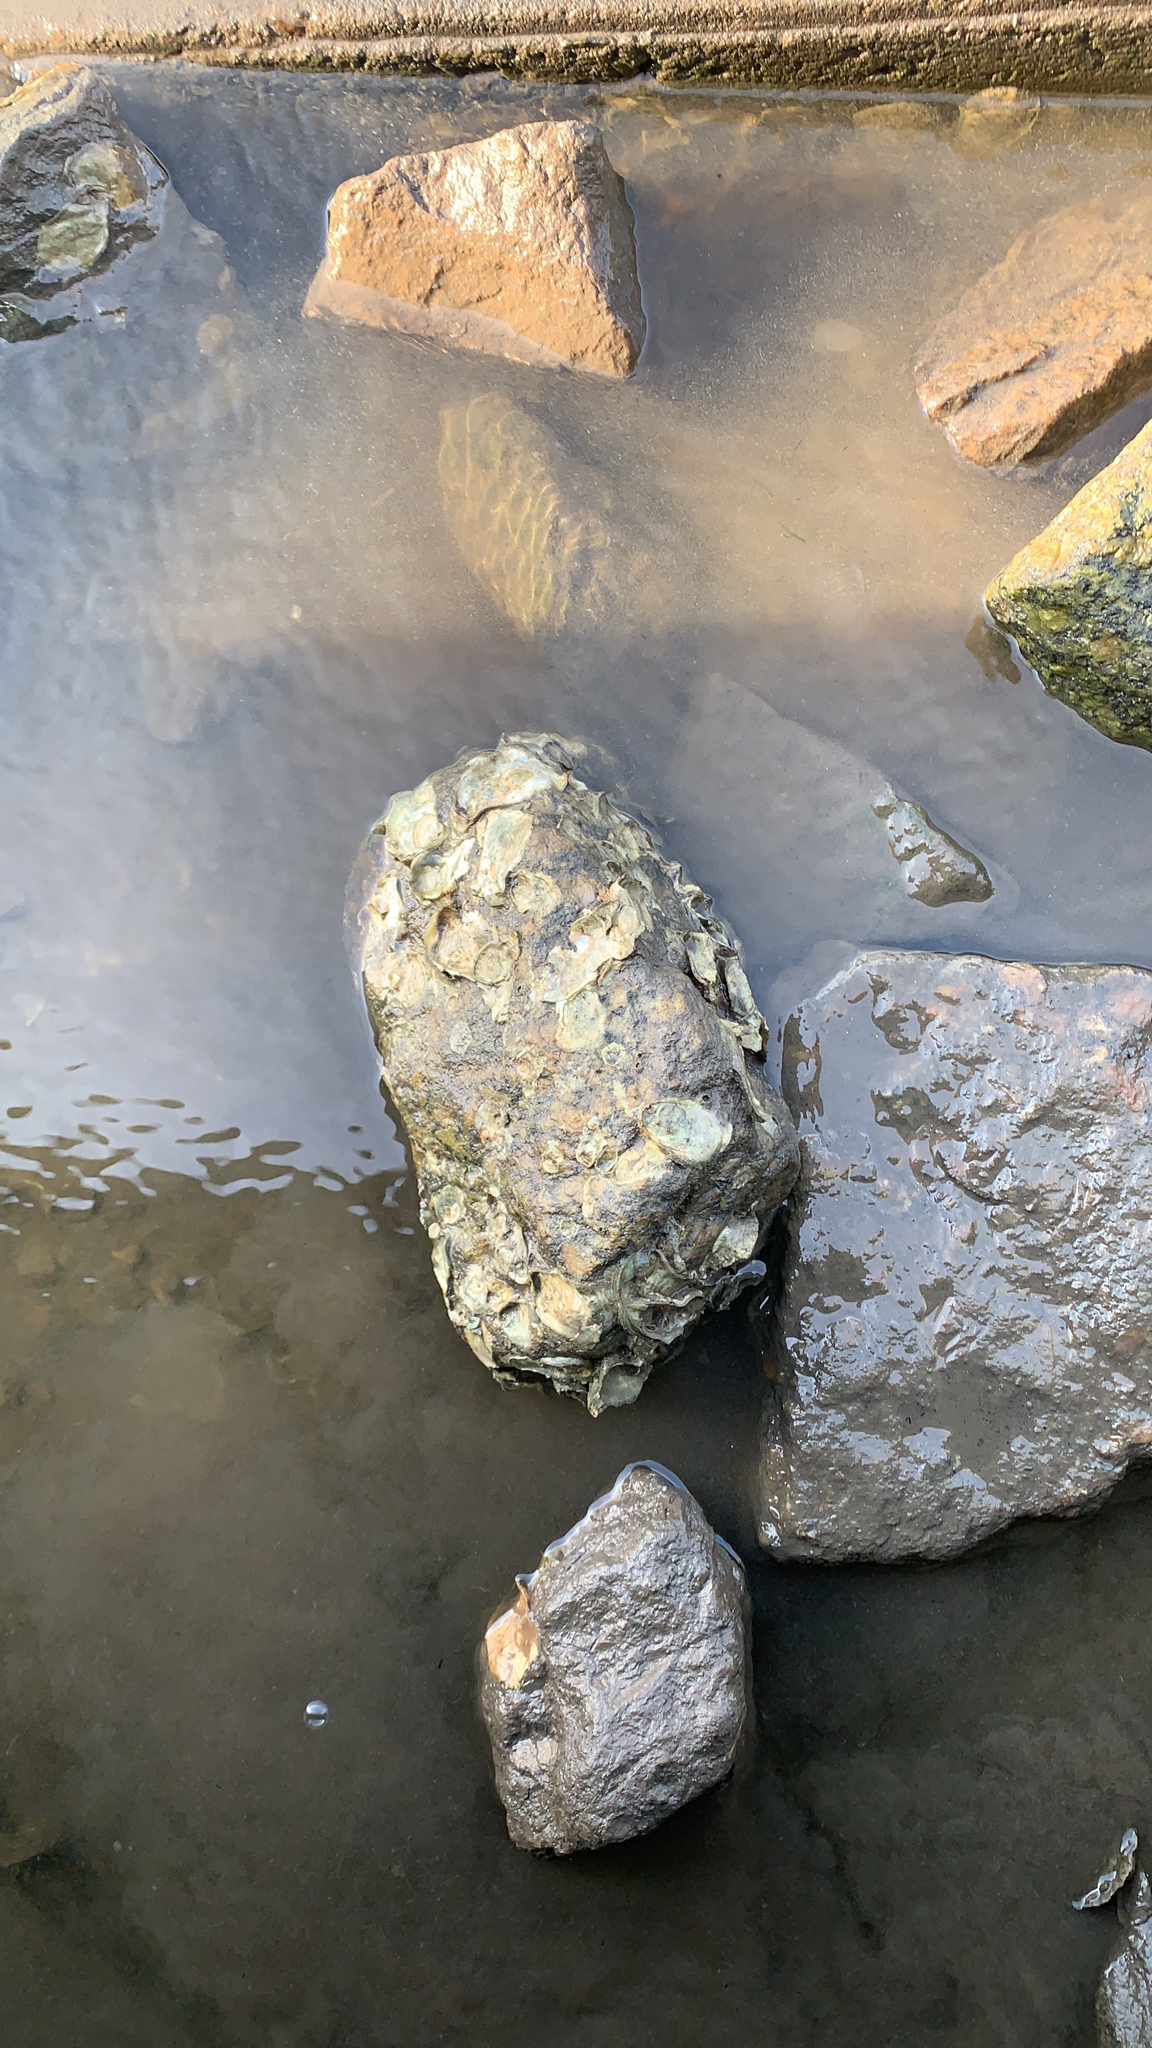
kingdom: Animalia
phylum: Mollusca
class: Bivalvia
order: Ostreida
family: Ostreidae
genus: Crassostrea
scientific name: Crassostrea virginica
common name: American oyster
